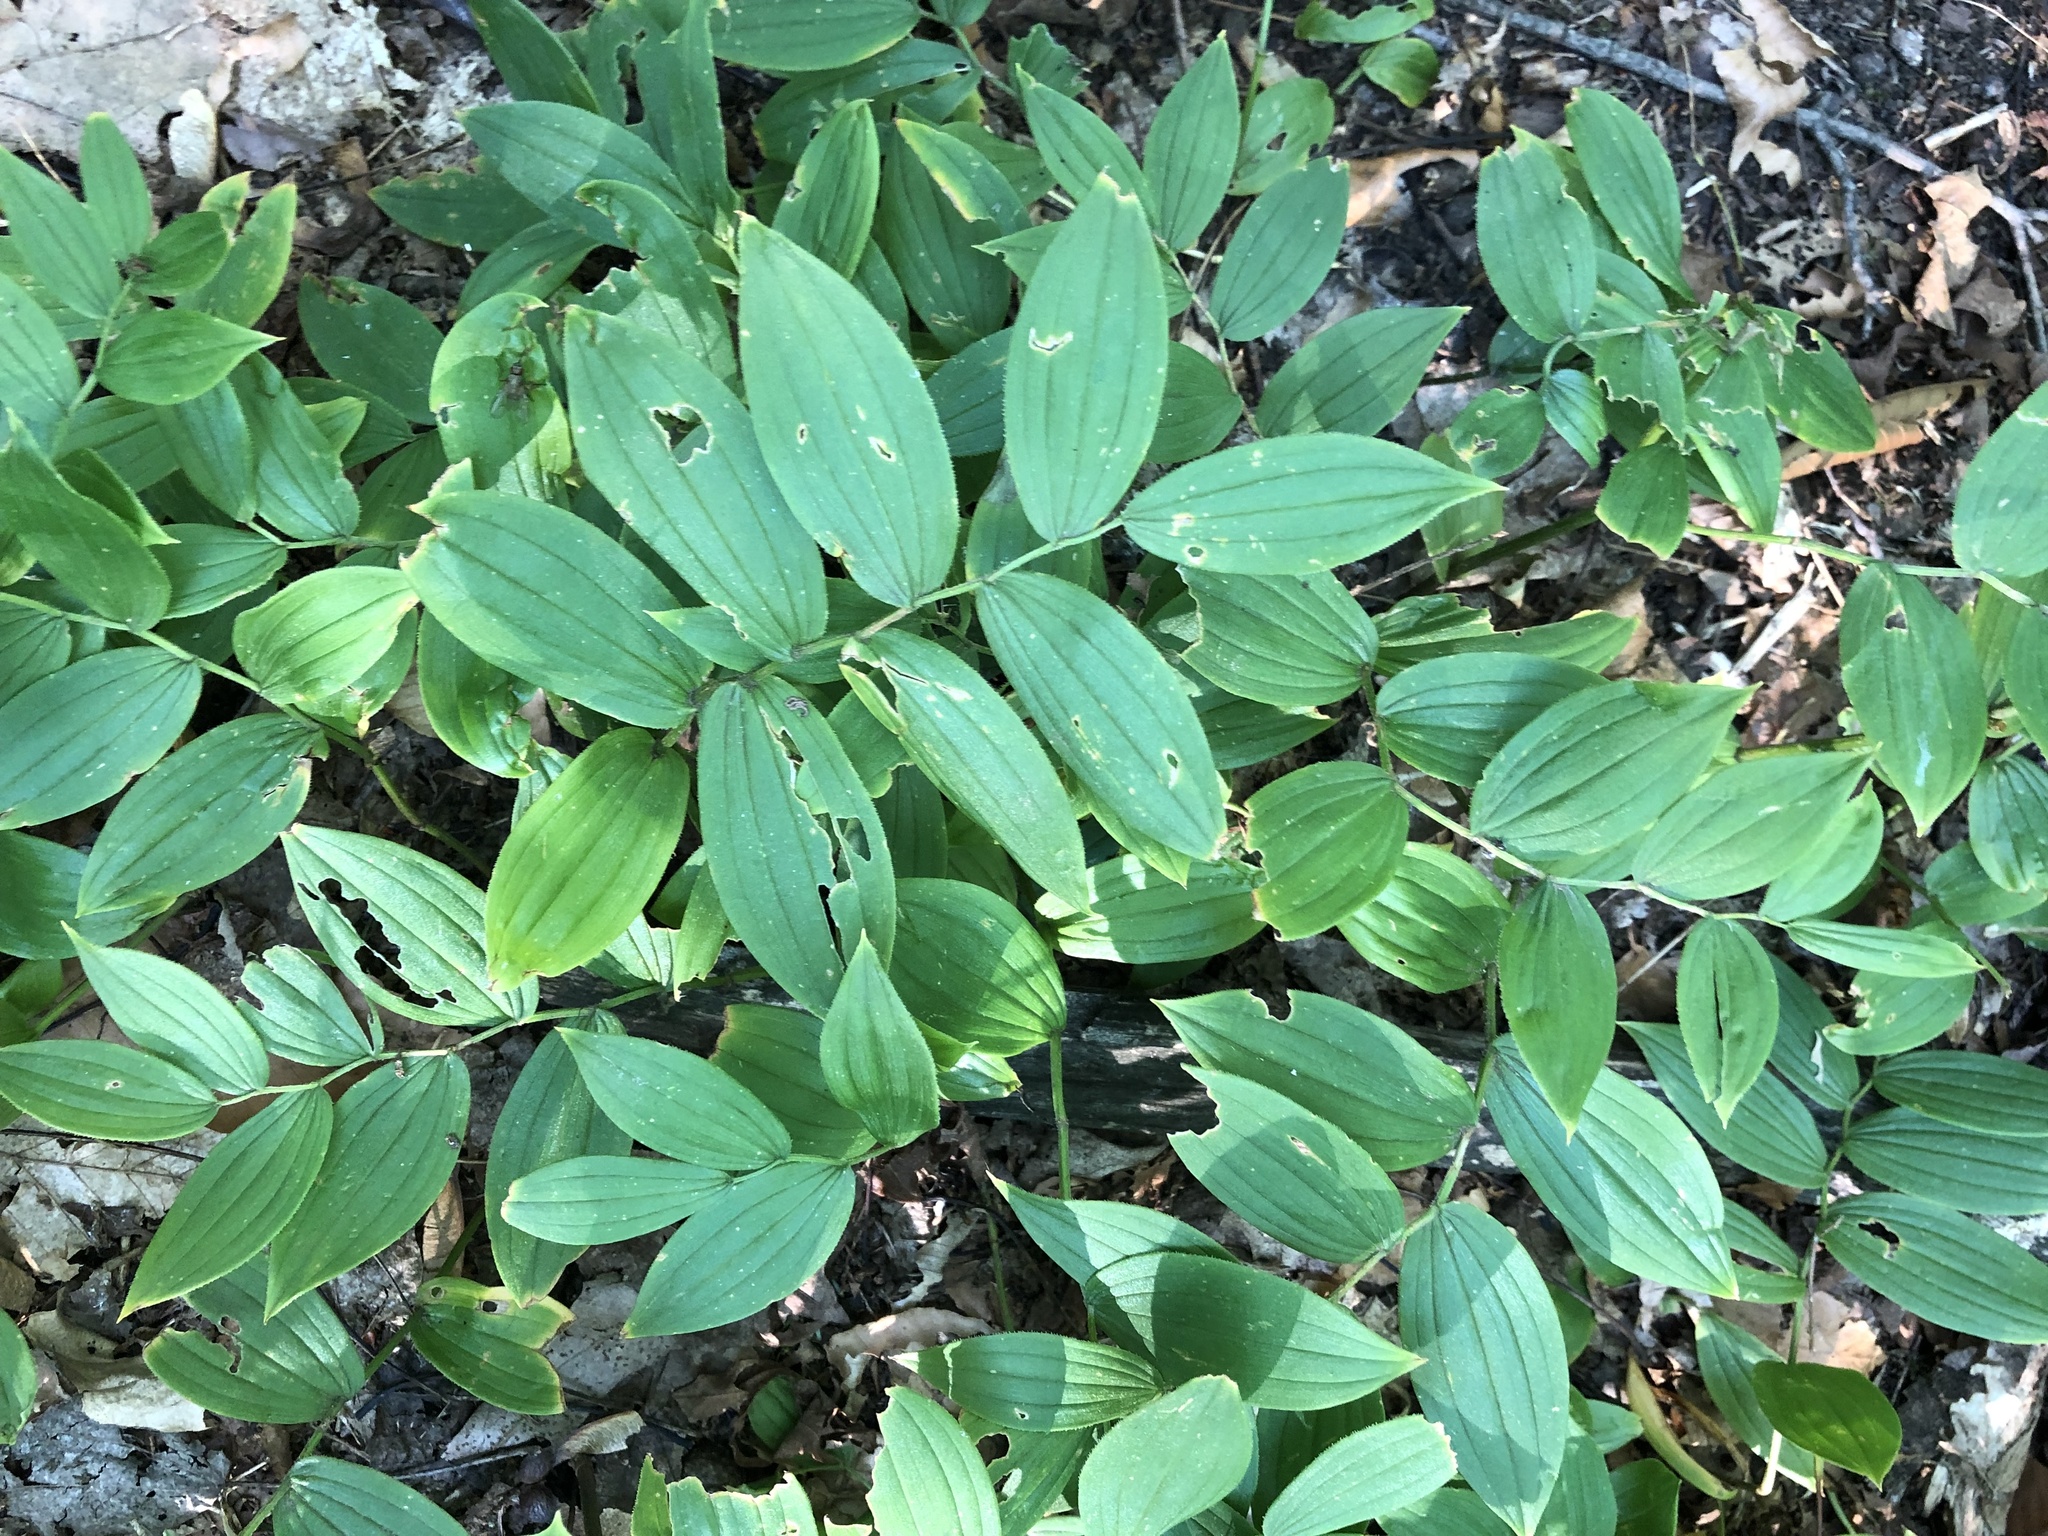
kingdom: Plantae
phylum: Tracheophyta
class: Liliopsida
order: Liliales
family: Liliaceae
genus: Streptopus
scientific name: Streptopus lanceolatus
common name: Rose mandarin
